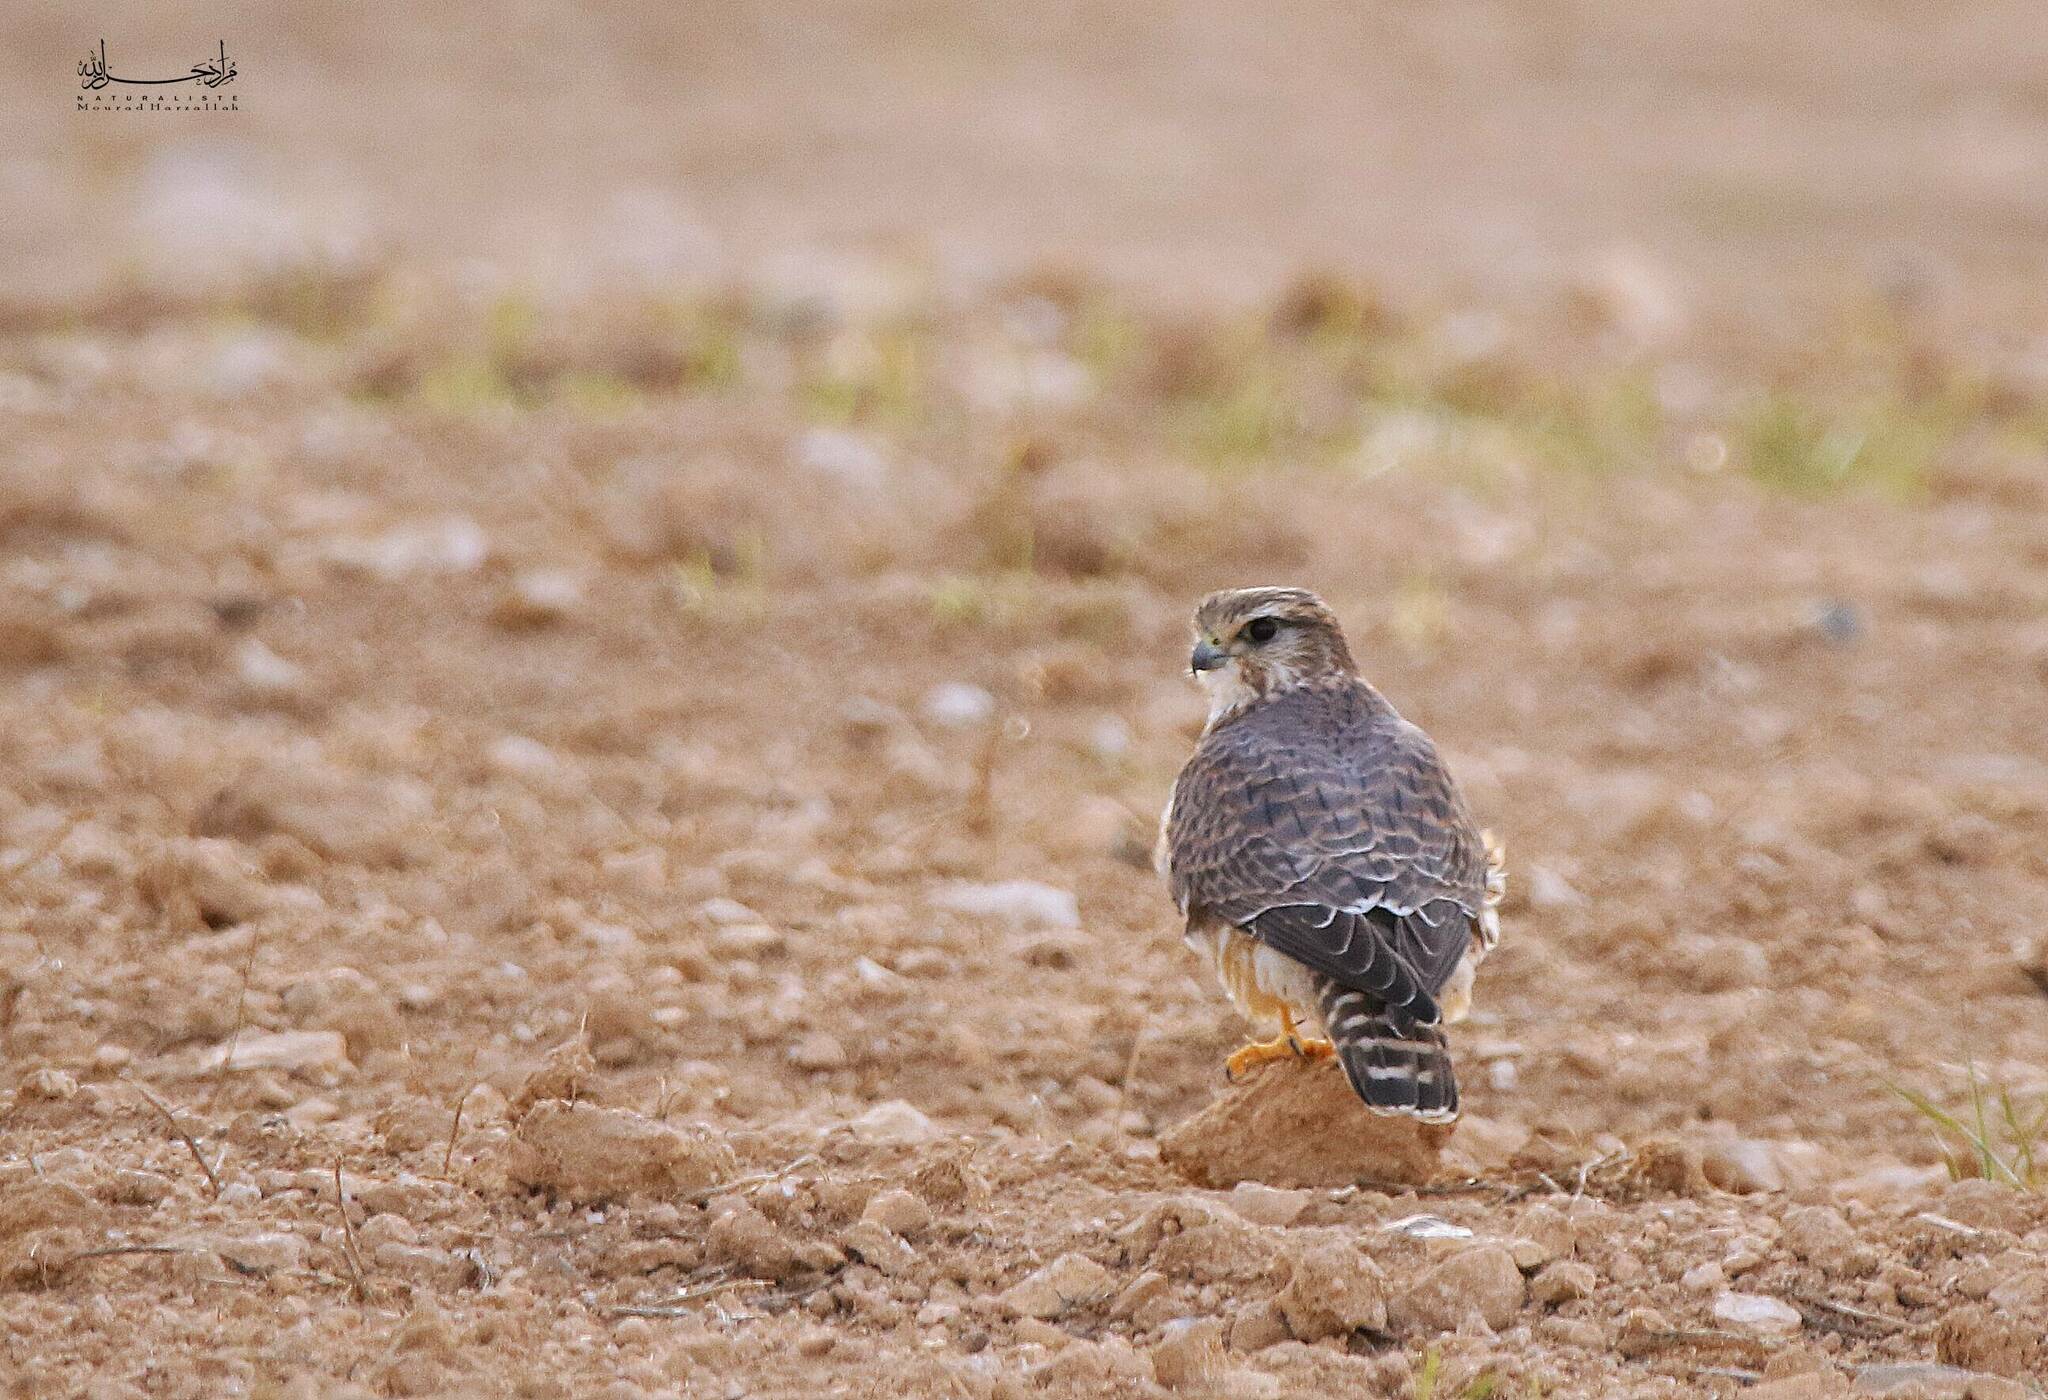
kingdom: Animalia
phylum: Chordata
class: Aves
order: Falconiformes
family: Falconidae
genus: Falco
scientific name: Falco columbarius
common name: Merlin
